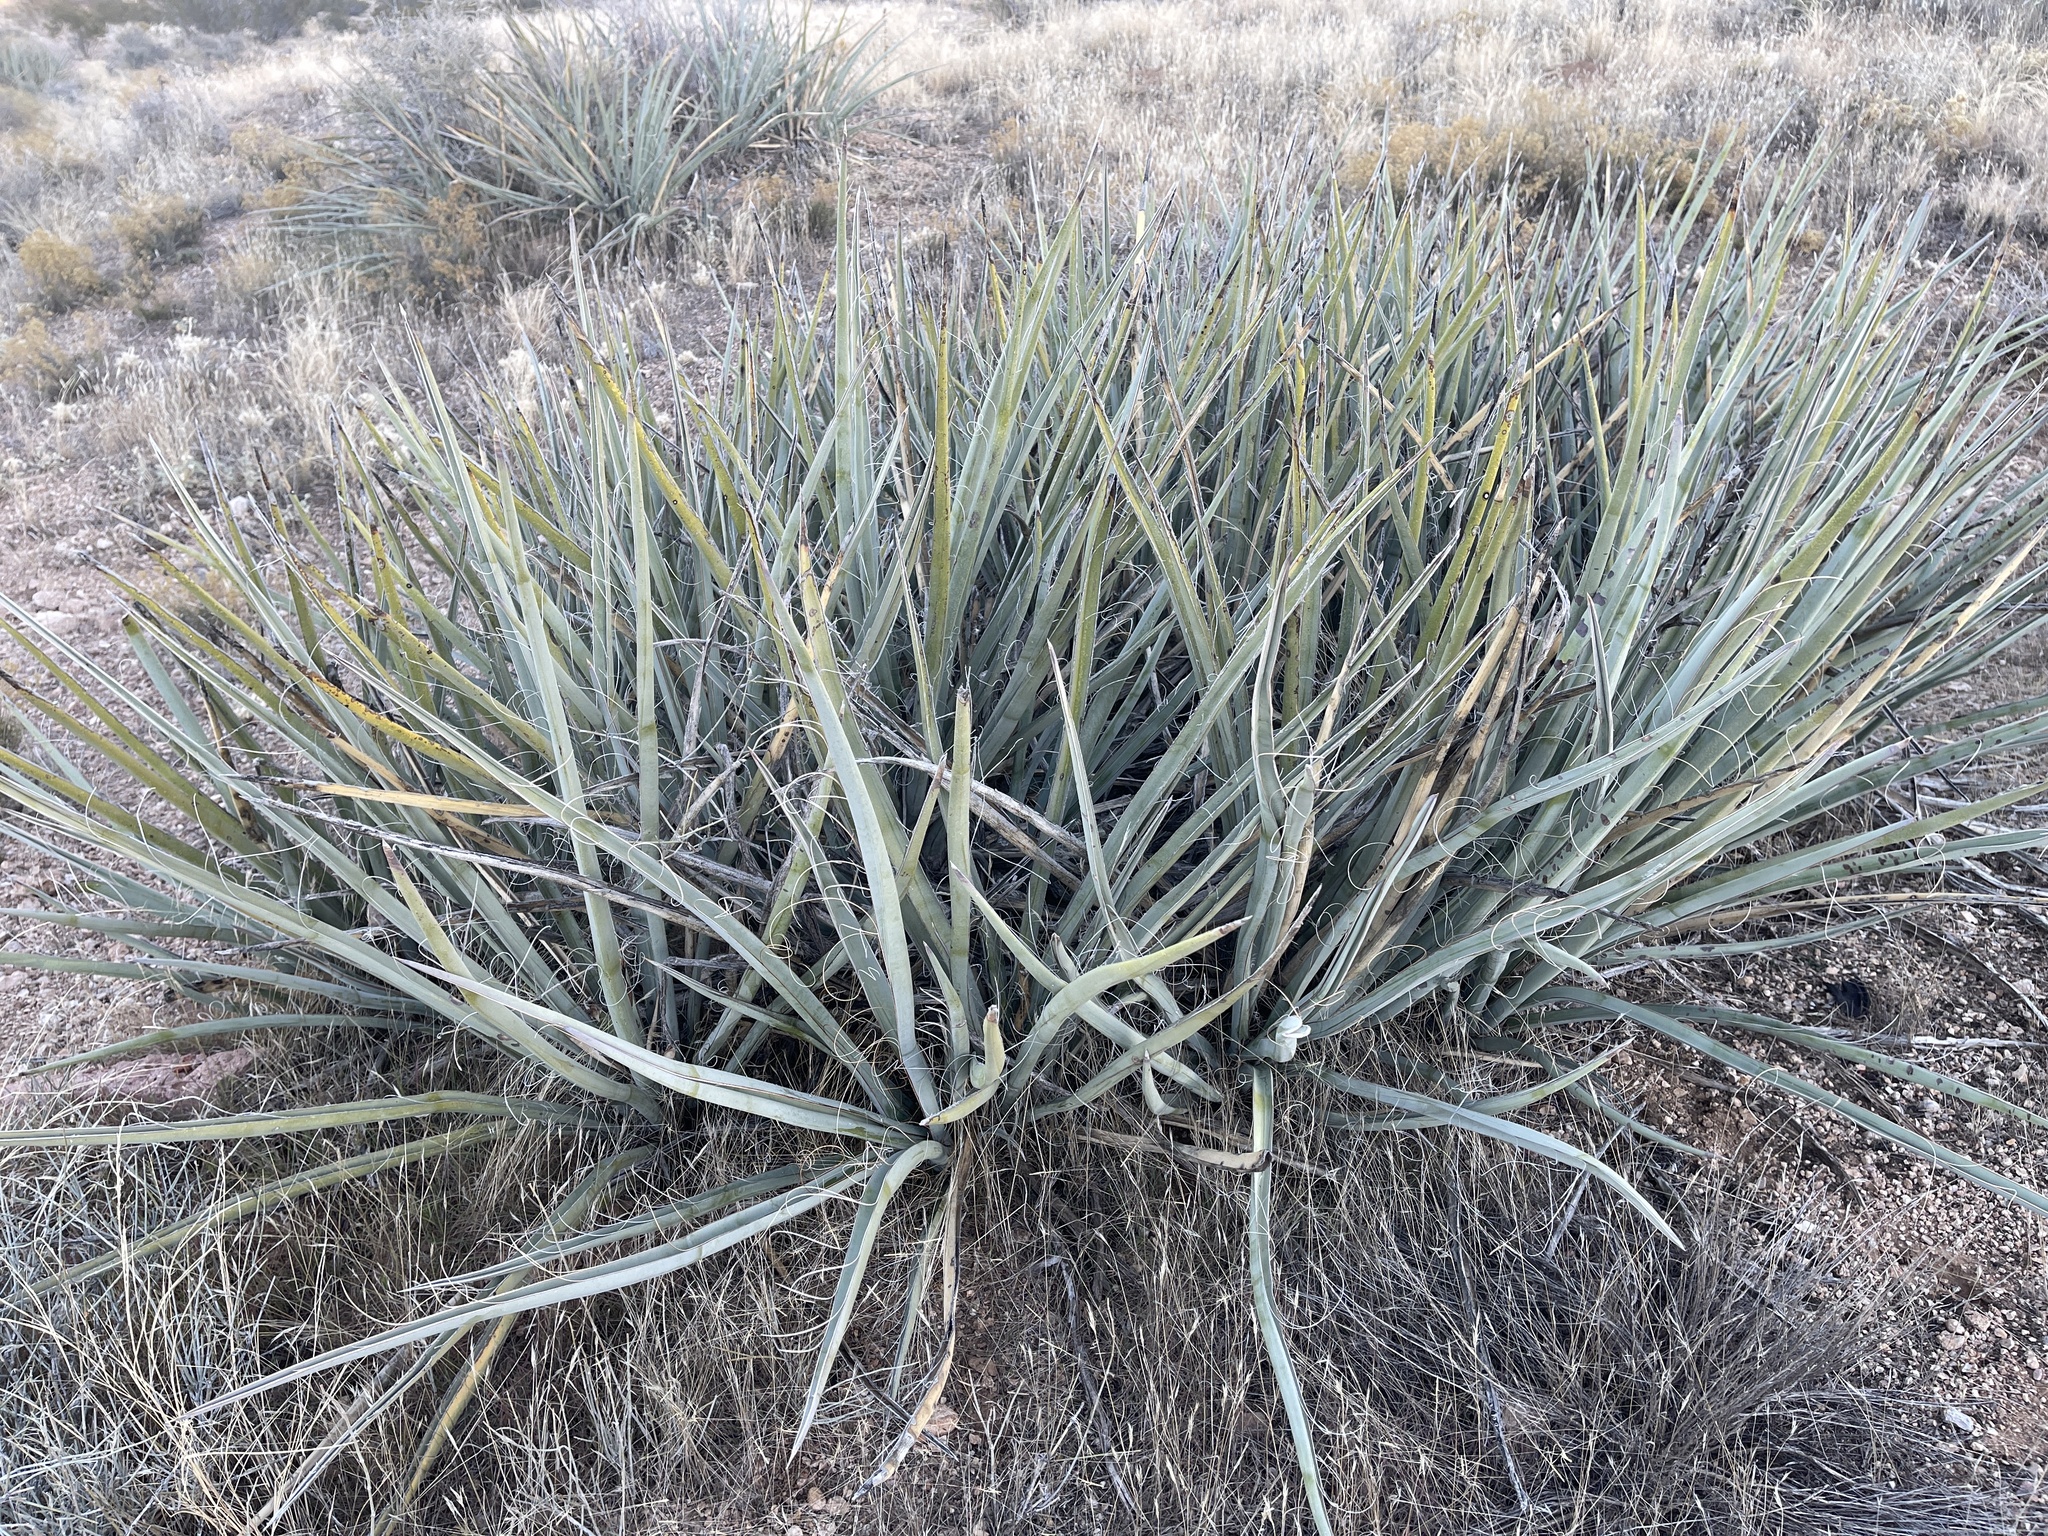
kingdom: Plantae
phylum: Tracheophyta
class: Liliopsida
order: Asparagales
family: Asparagaceae
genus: Yucca
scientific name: Yucca baccata
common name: Banana yucca
